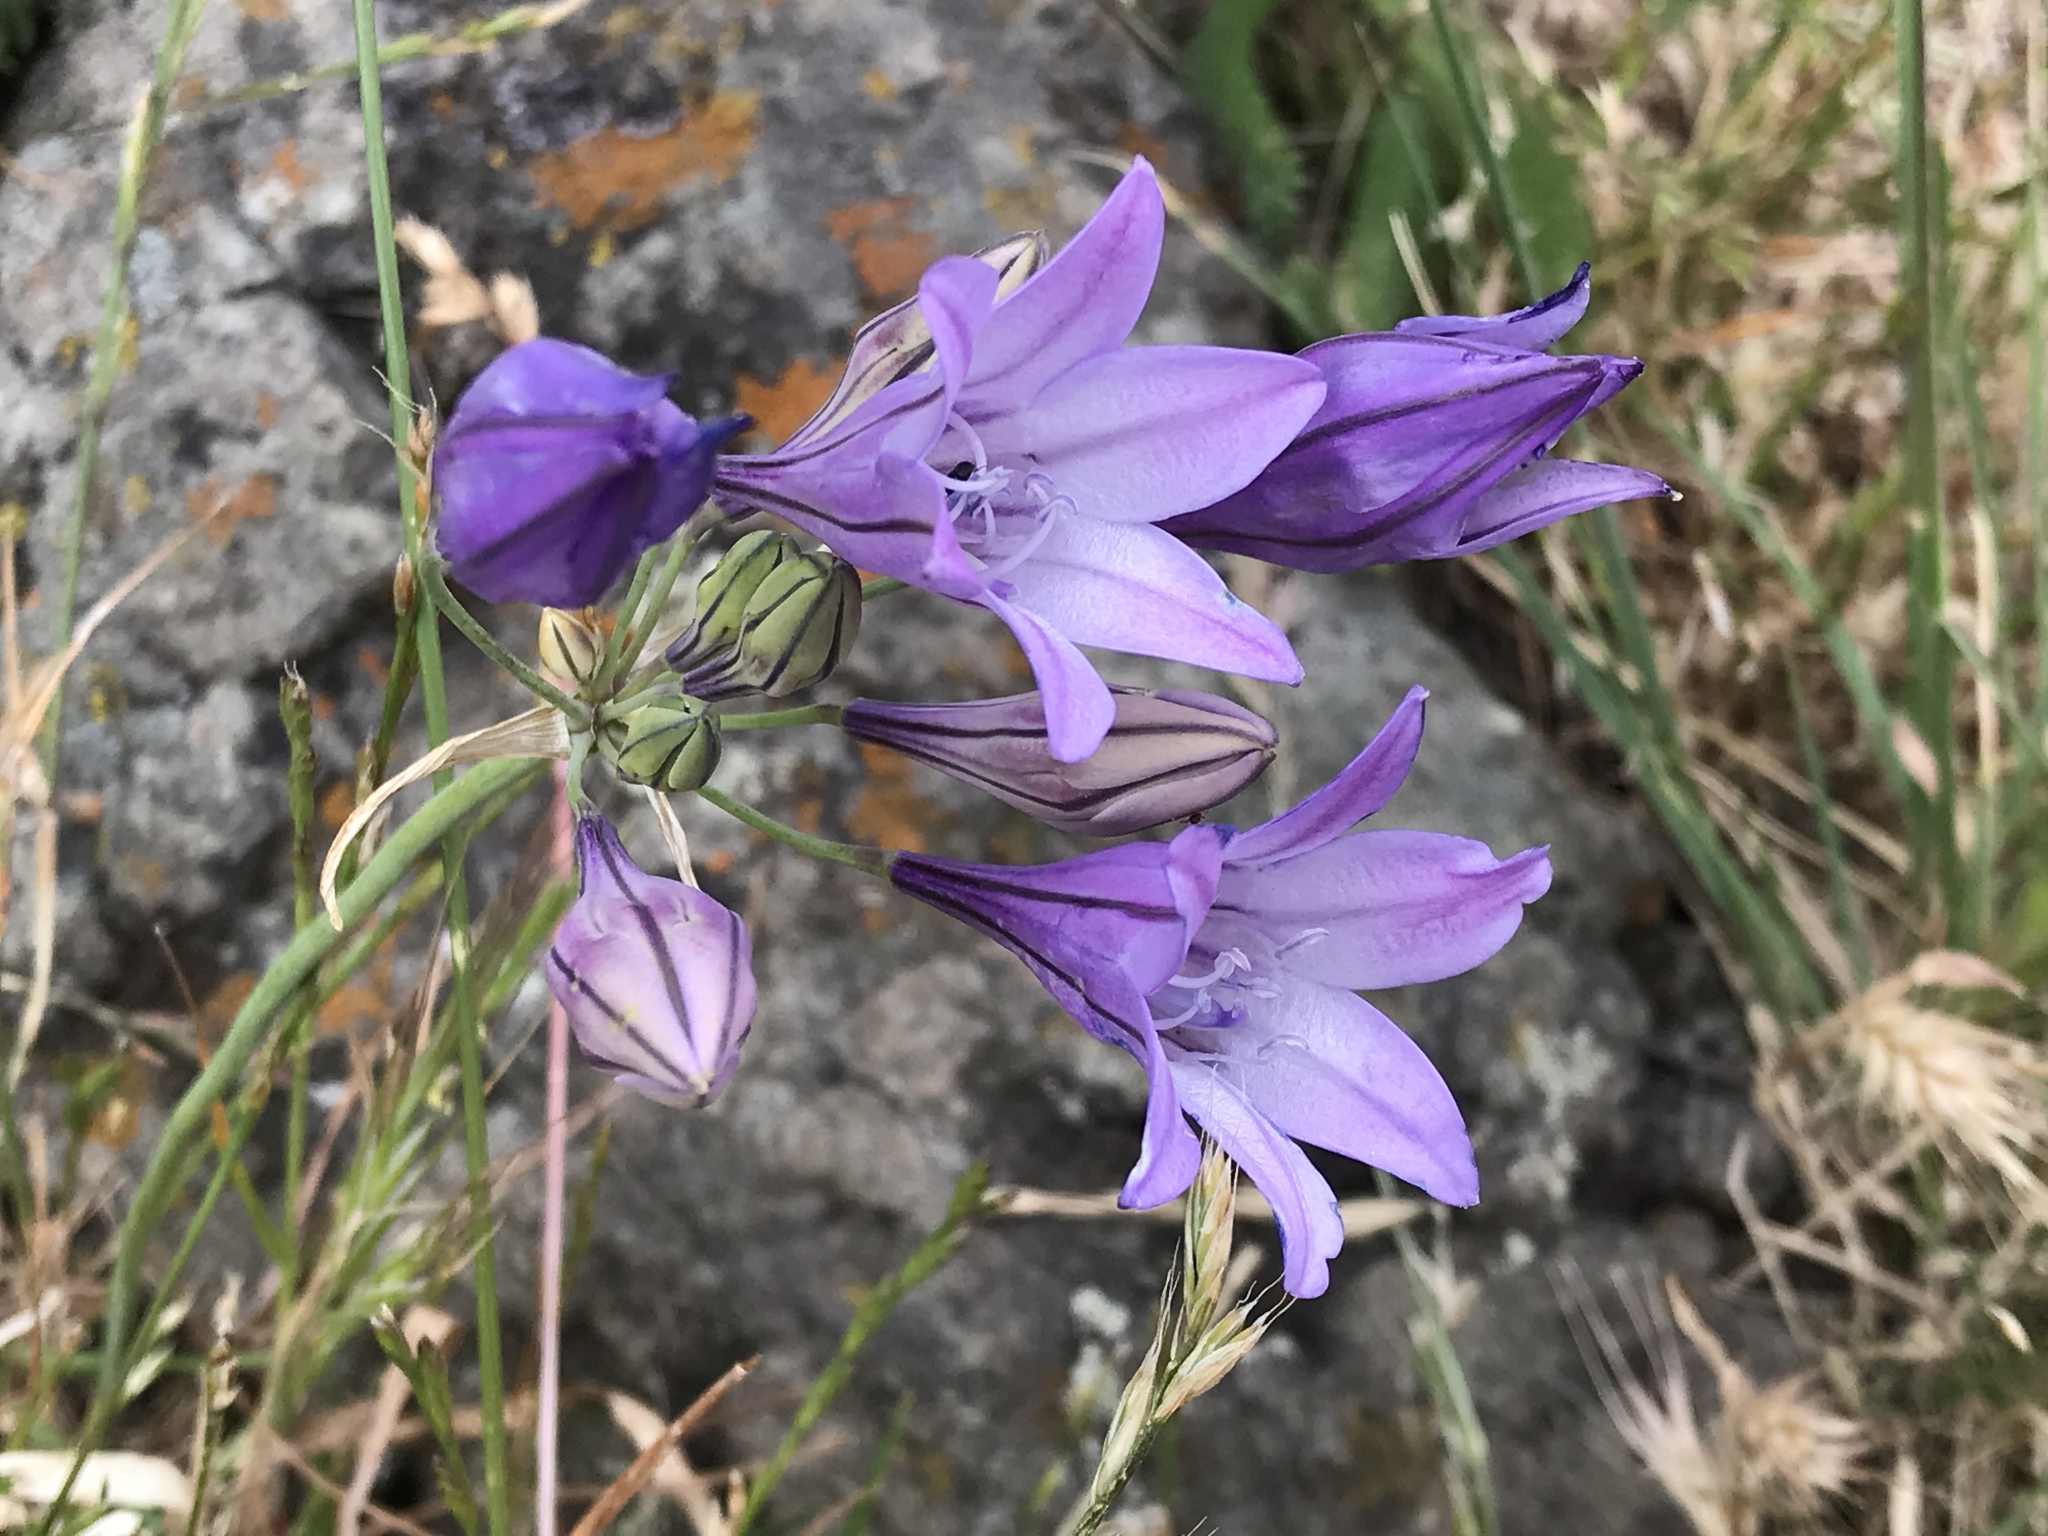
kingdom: Plantae
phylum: Tracheophyta
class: Liliopsida
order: Asparagales
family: Asparagaceae
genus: Triteleia
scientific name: Triteleia laxa
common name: Triplet-lily
